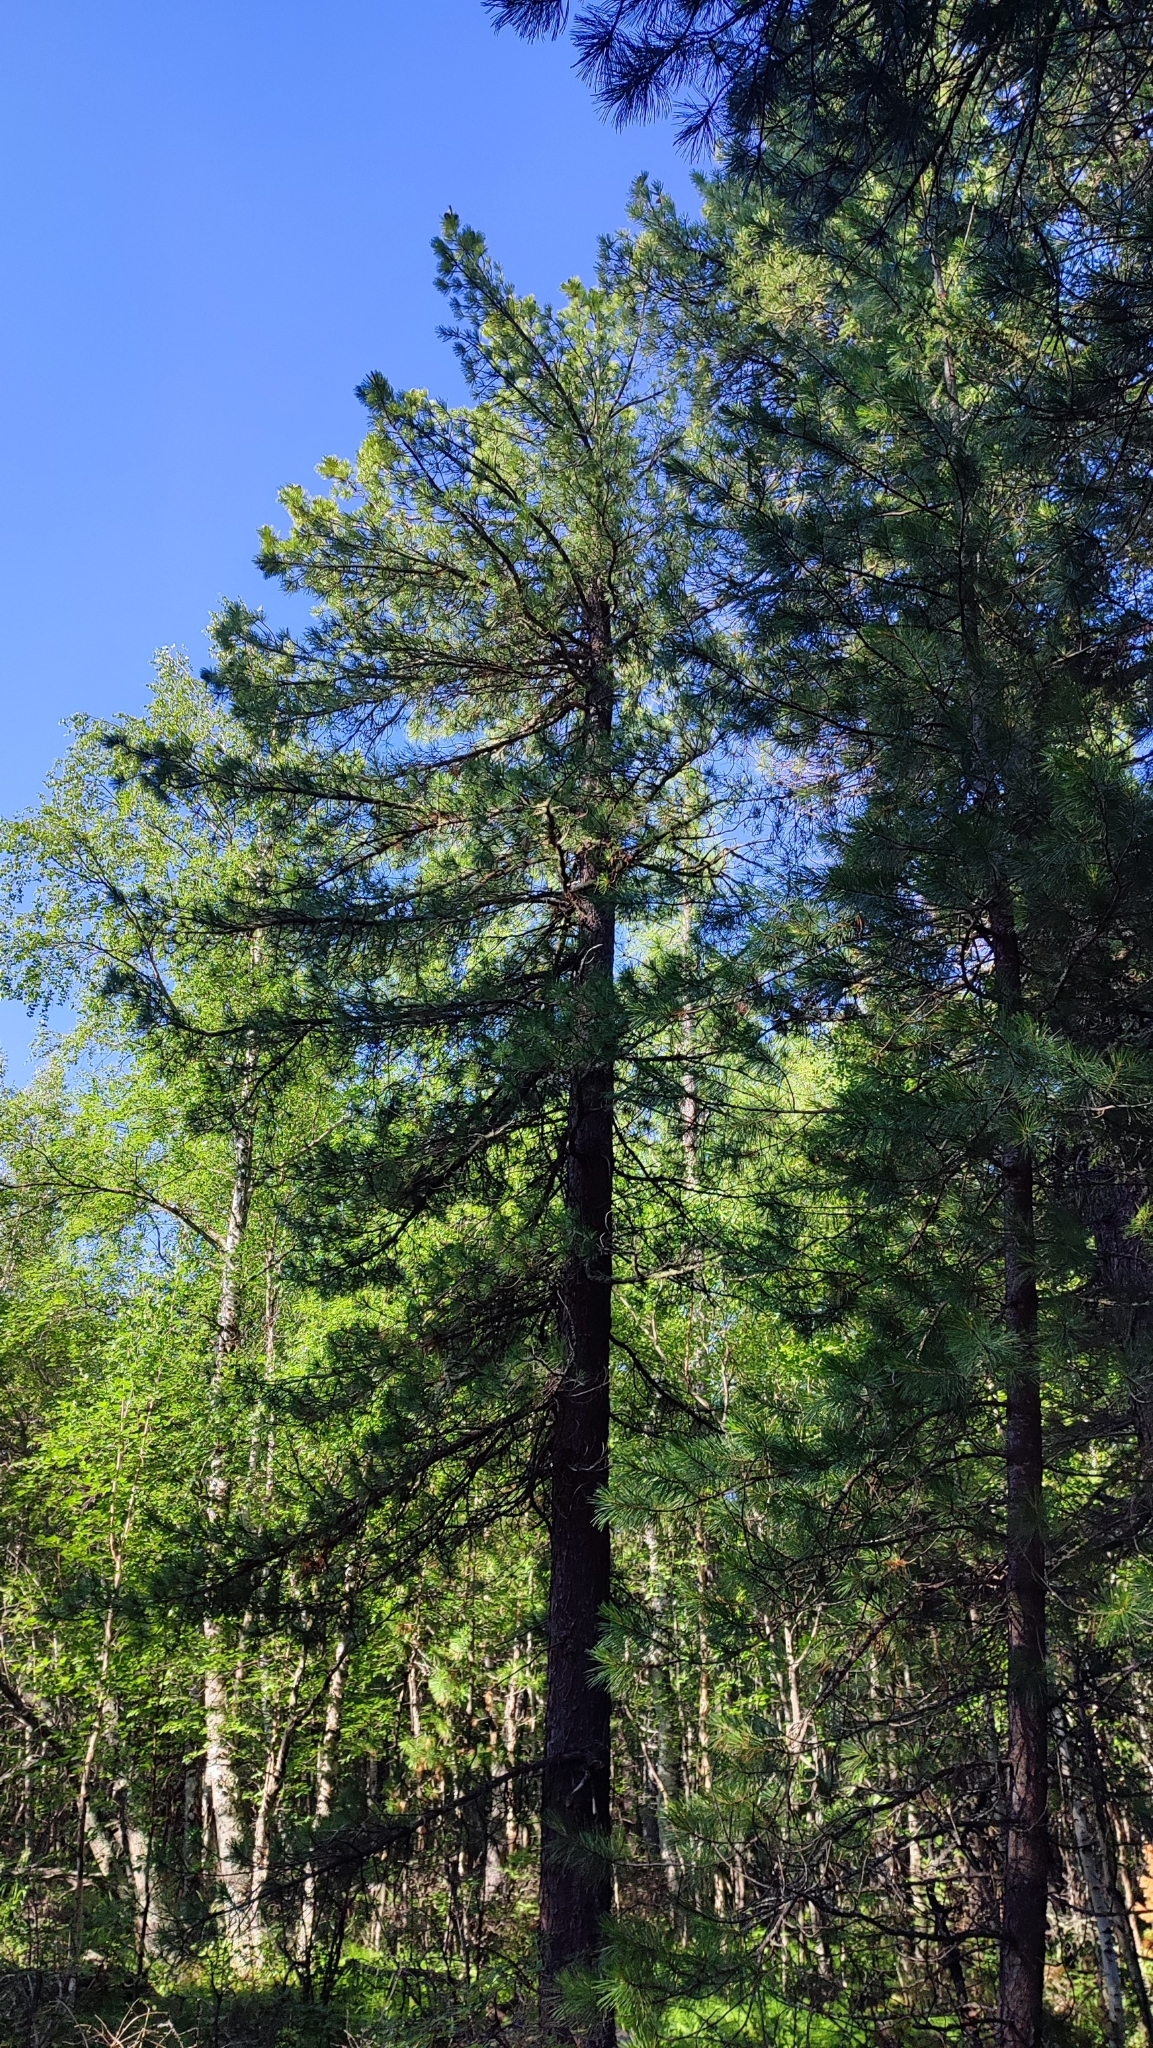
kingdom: Plantae
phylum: Tracheophyta
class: Pinopsida
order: Pinales
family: Pinaceae
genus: Pinus
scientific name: Pinus sibirica
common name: Siberian pine
